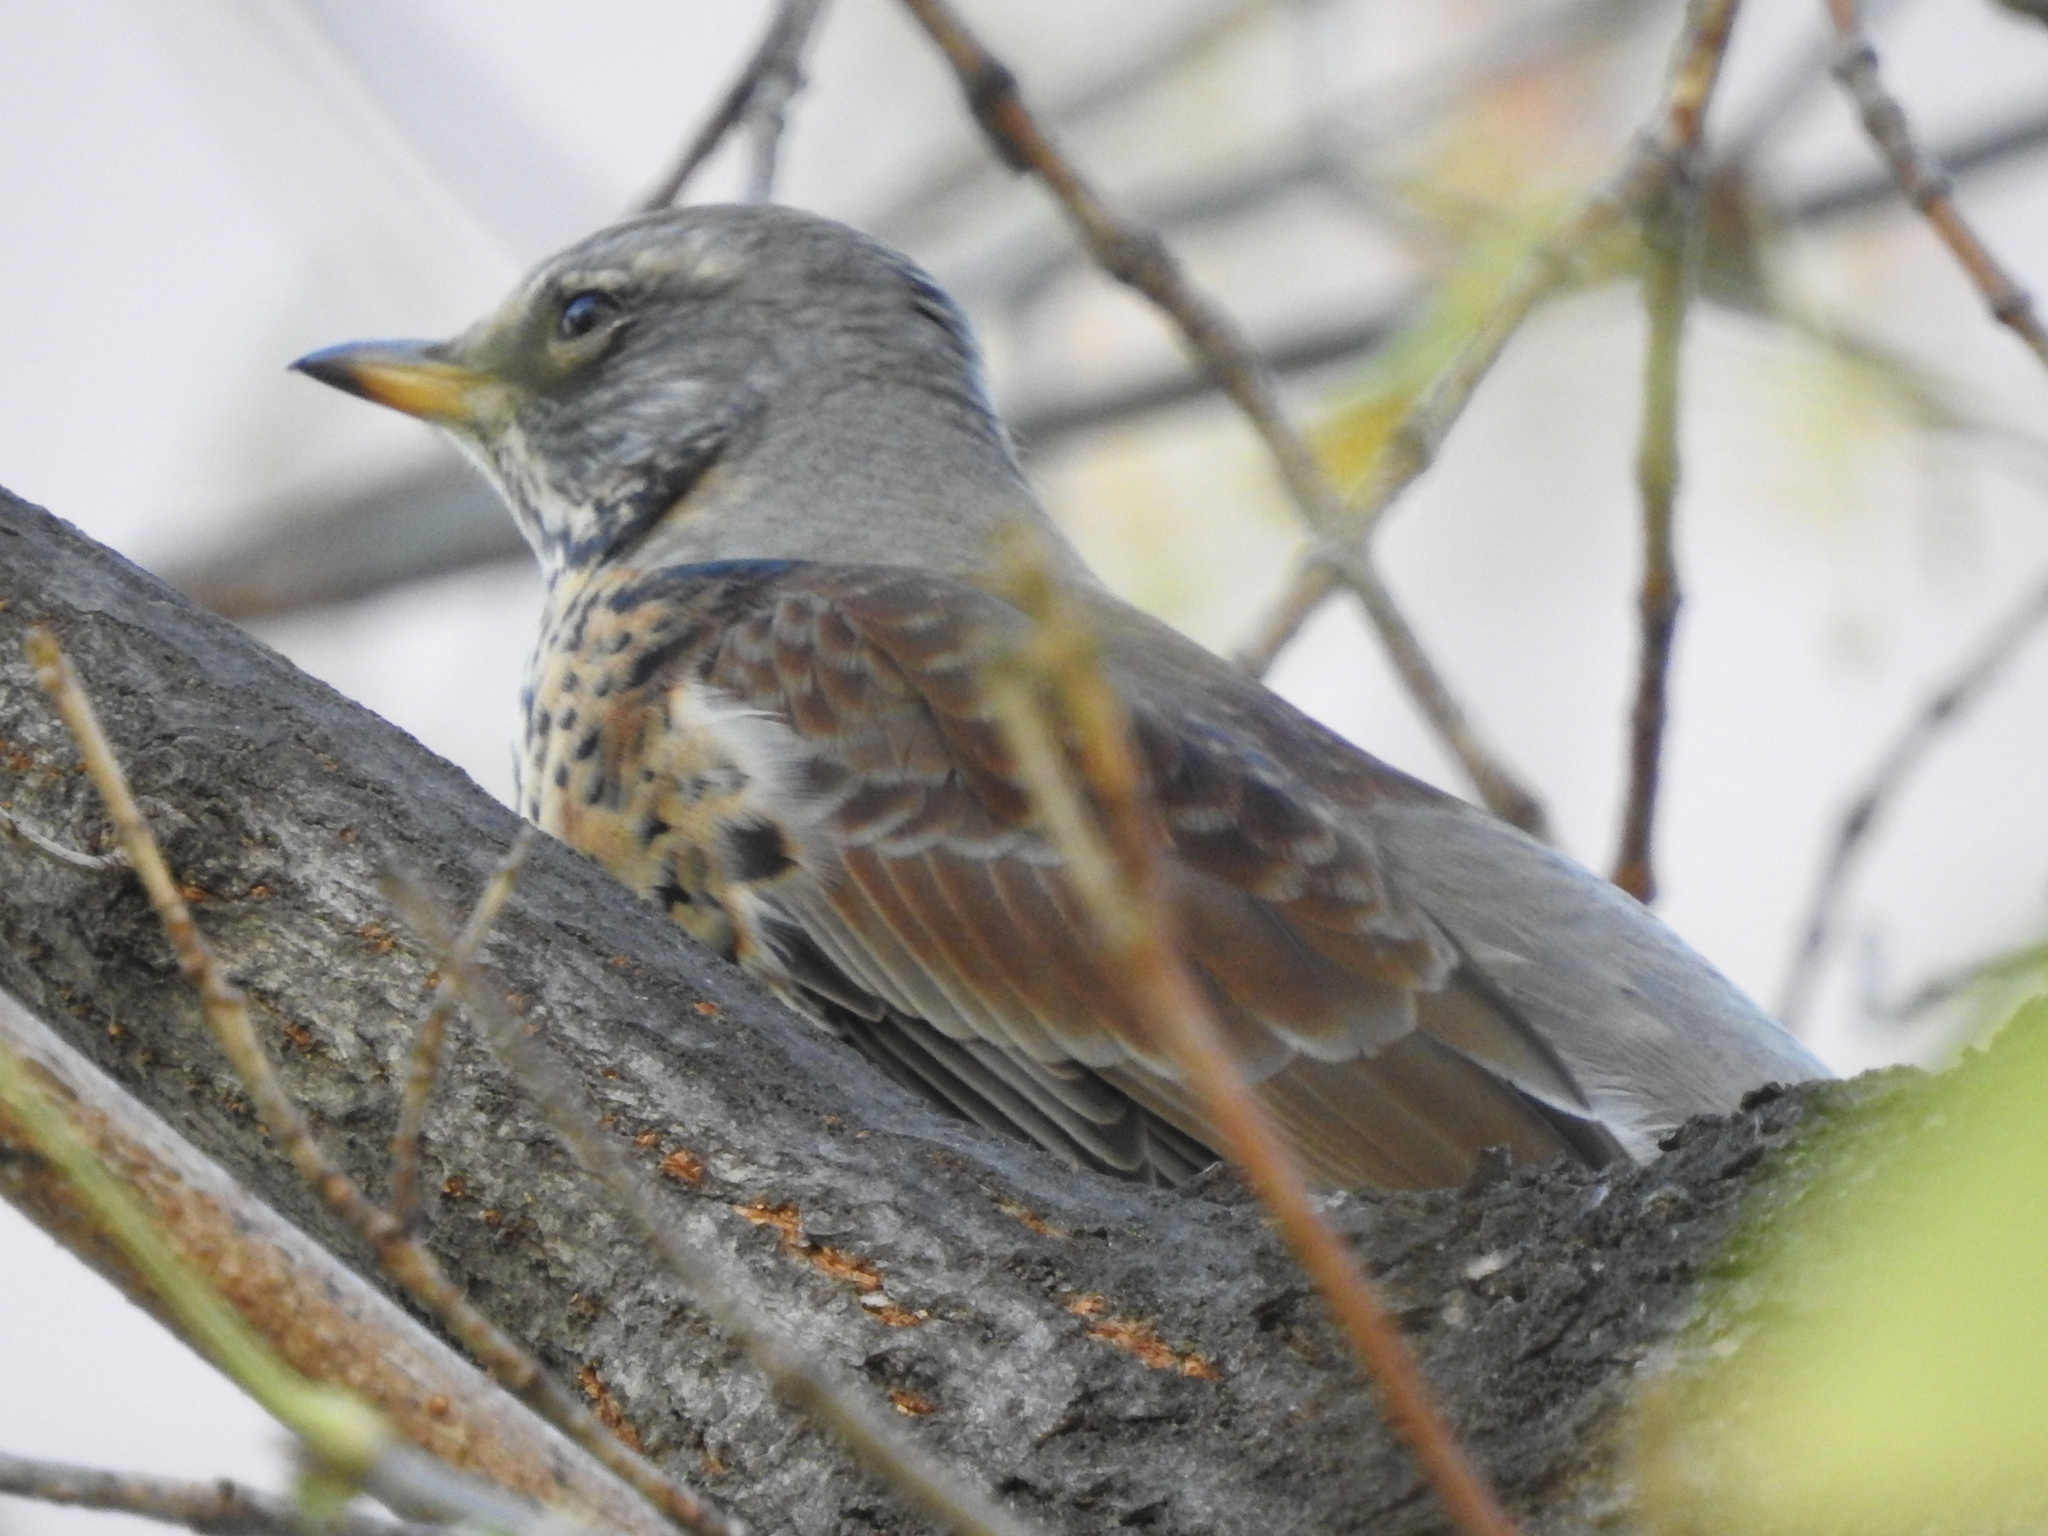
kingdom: Animalia
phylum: Chordata
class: Aves
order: Passeriformes
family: Turdidae
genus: Turdus
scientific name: Turdus pilaris
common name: Fieldfare
